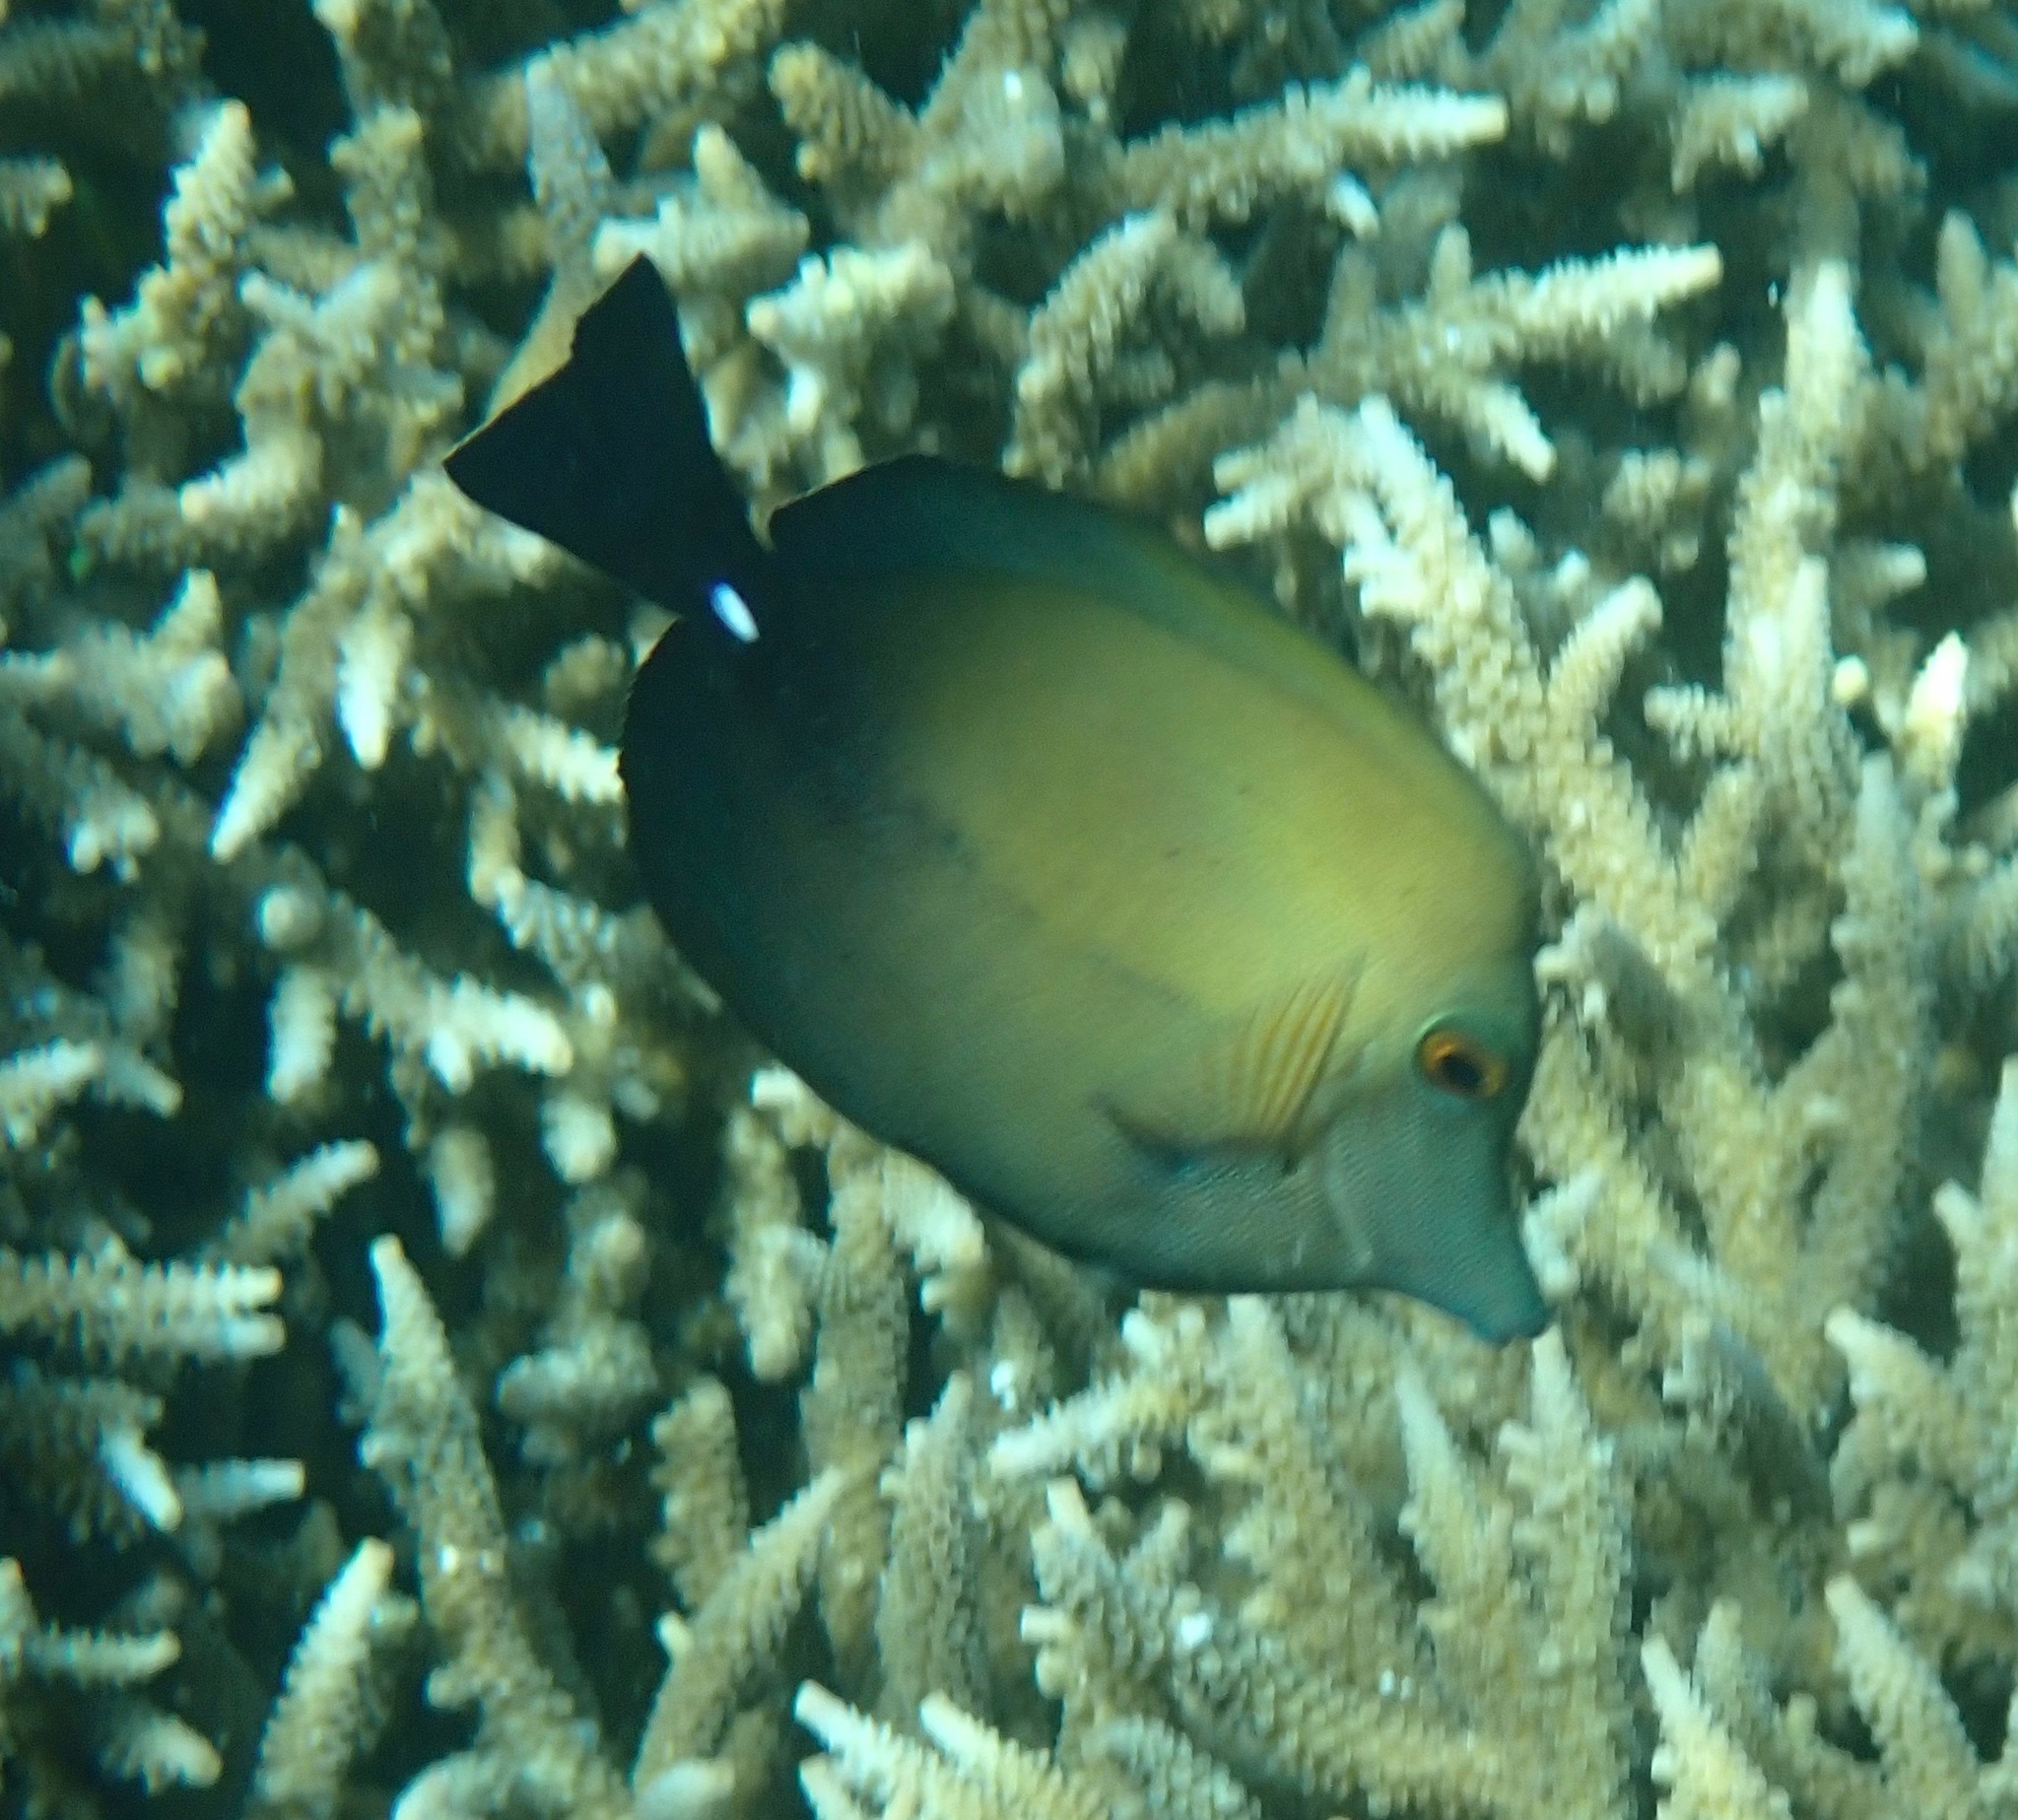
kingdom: Animalia
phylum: Chordata
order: Perciformes
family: Acanthuridae
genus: Zebrasoma
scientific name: Zebrasoma scopas
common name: Twotone tang
